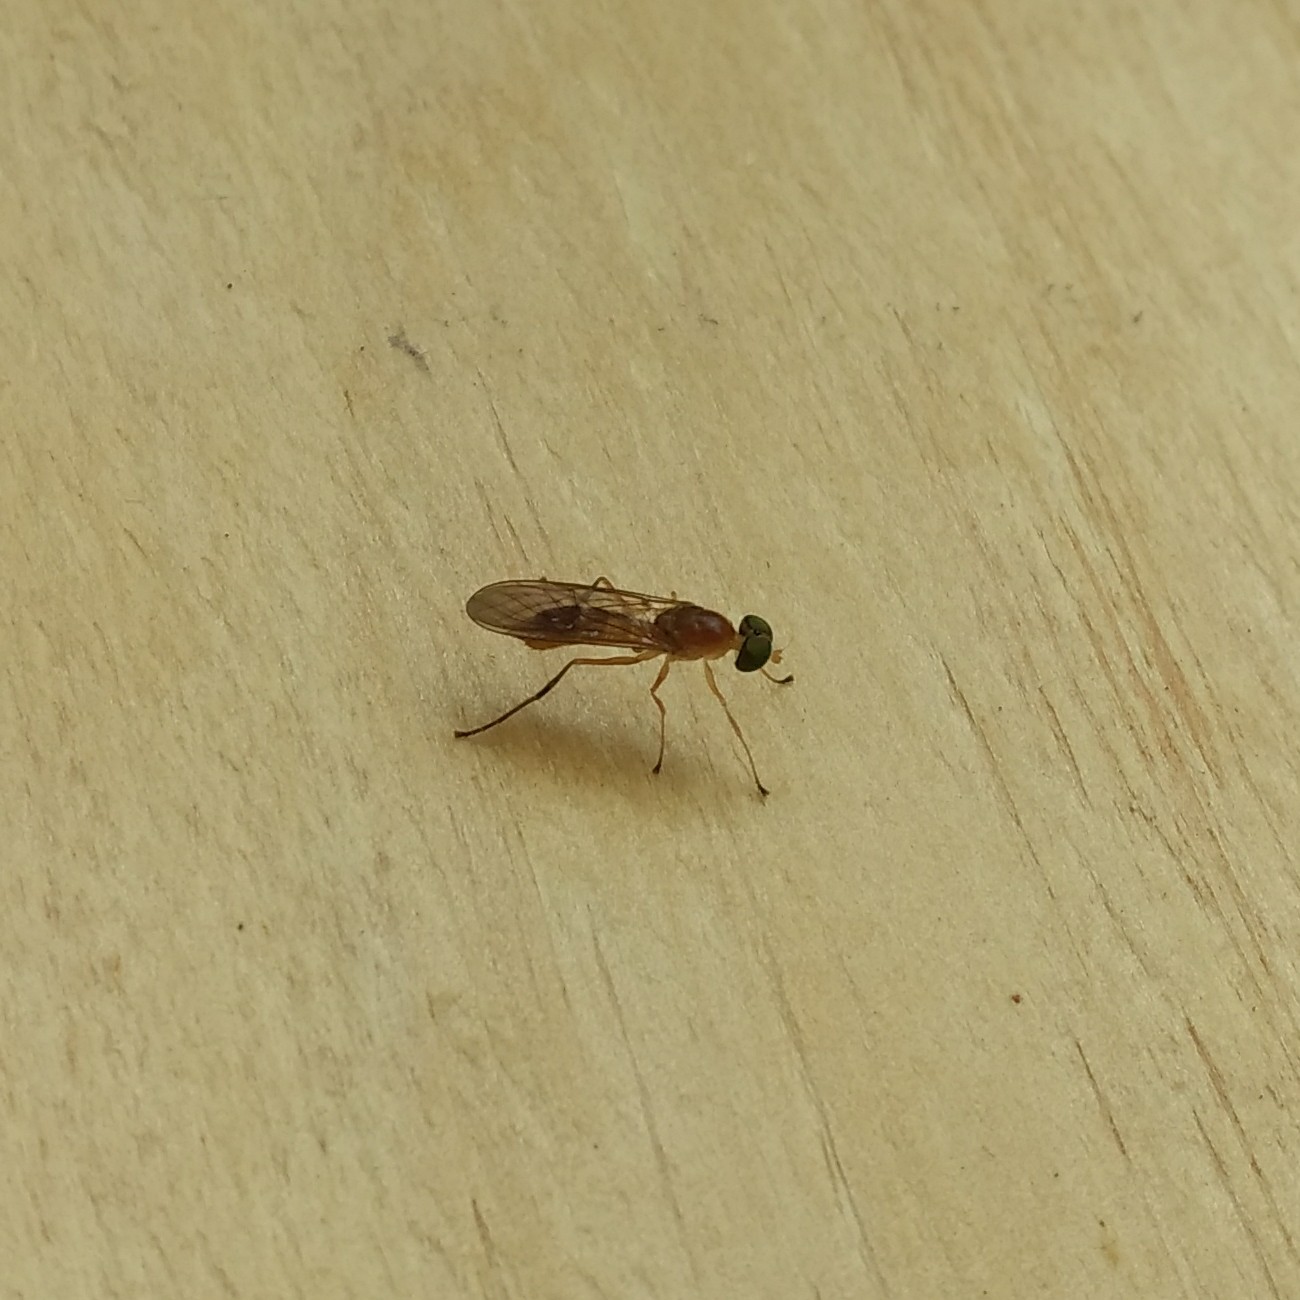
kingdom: Animalia
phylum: Arthropoda
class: Insecta
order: Diptera
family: Stratiomyidae
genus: Ptecticus
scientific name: Ptecticus trivittatus
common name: Compost fly
